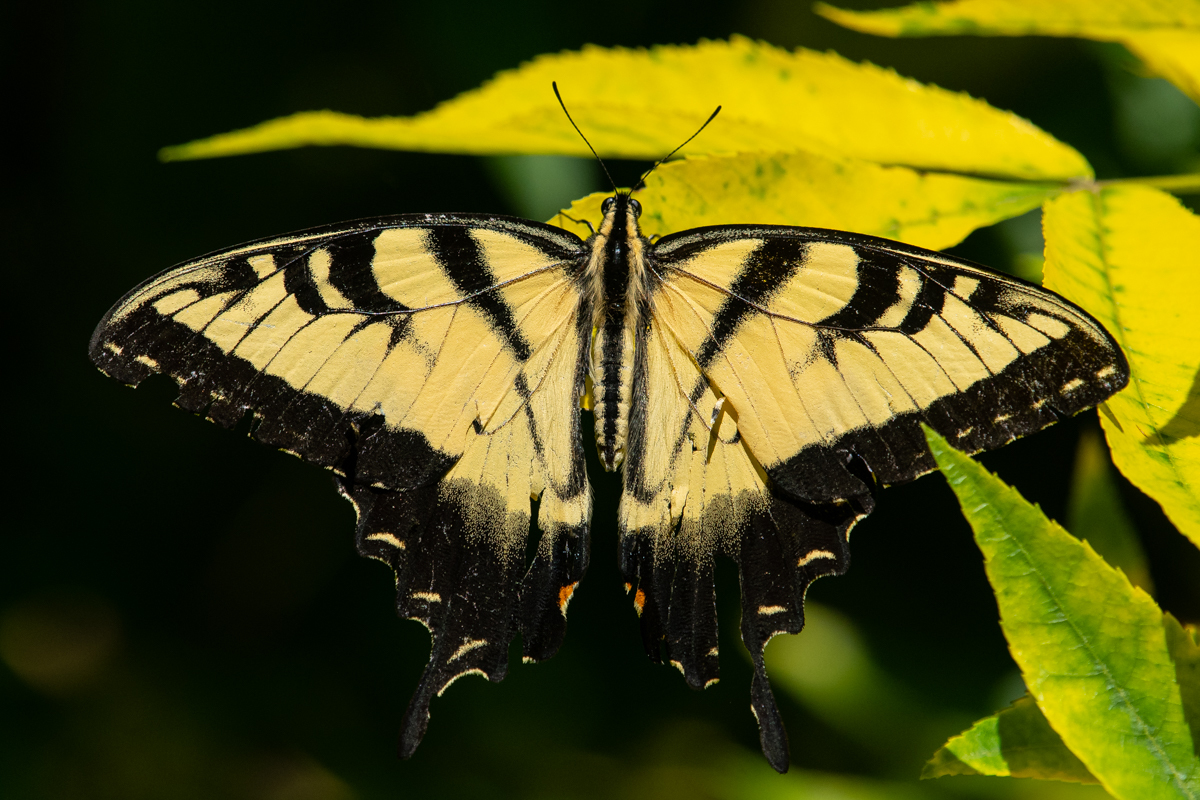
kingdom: Animalia
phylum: Arthropoda
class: Insecta
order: Lepidoptera
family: Papilionidae
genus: Pterourus
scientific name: Pterourus
